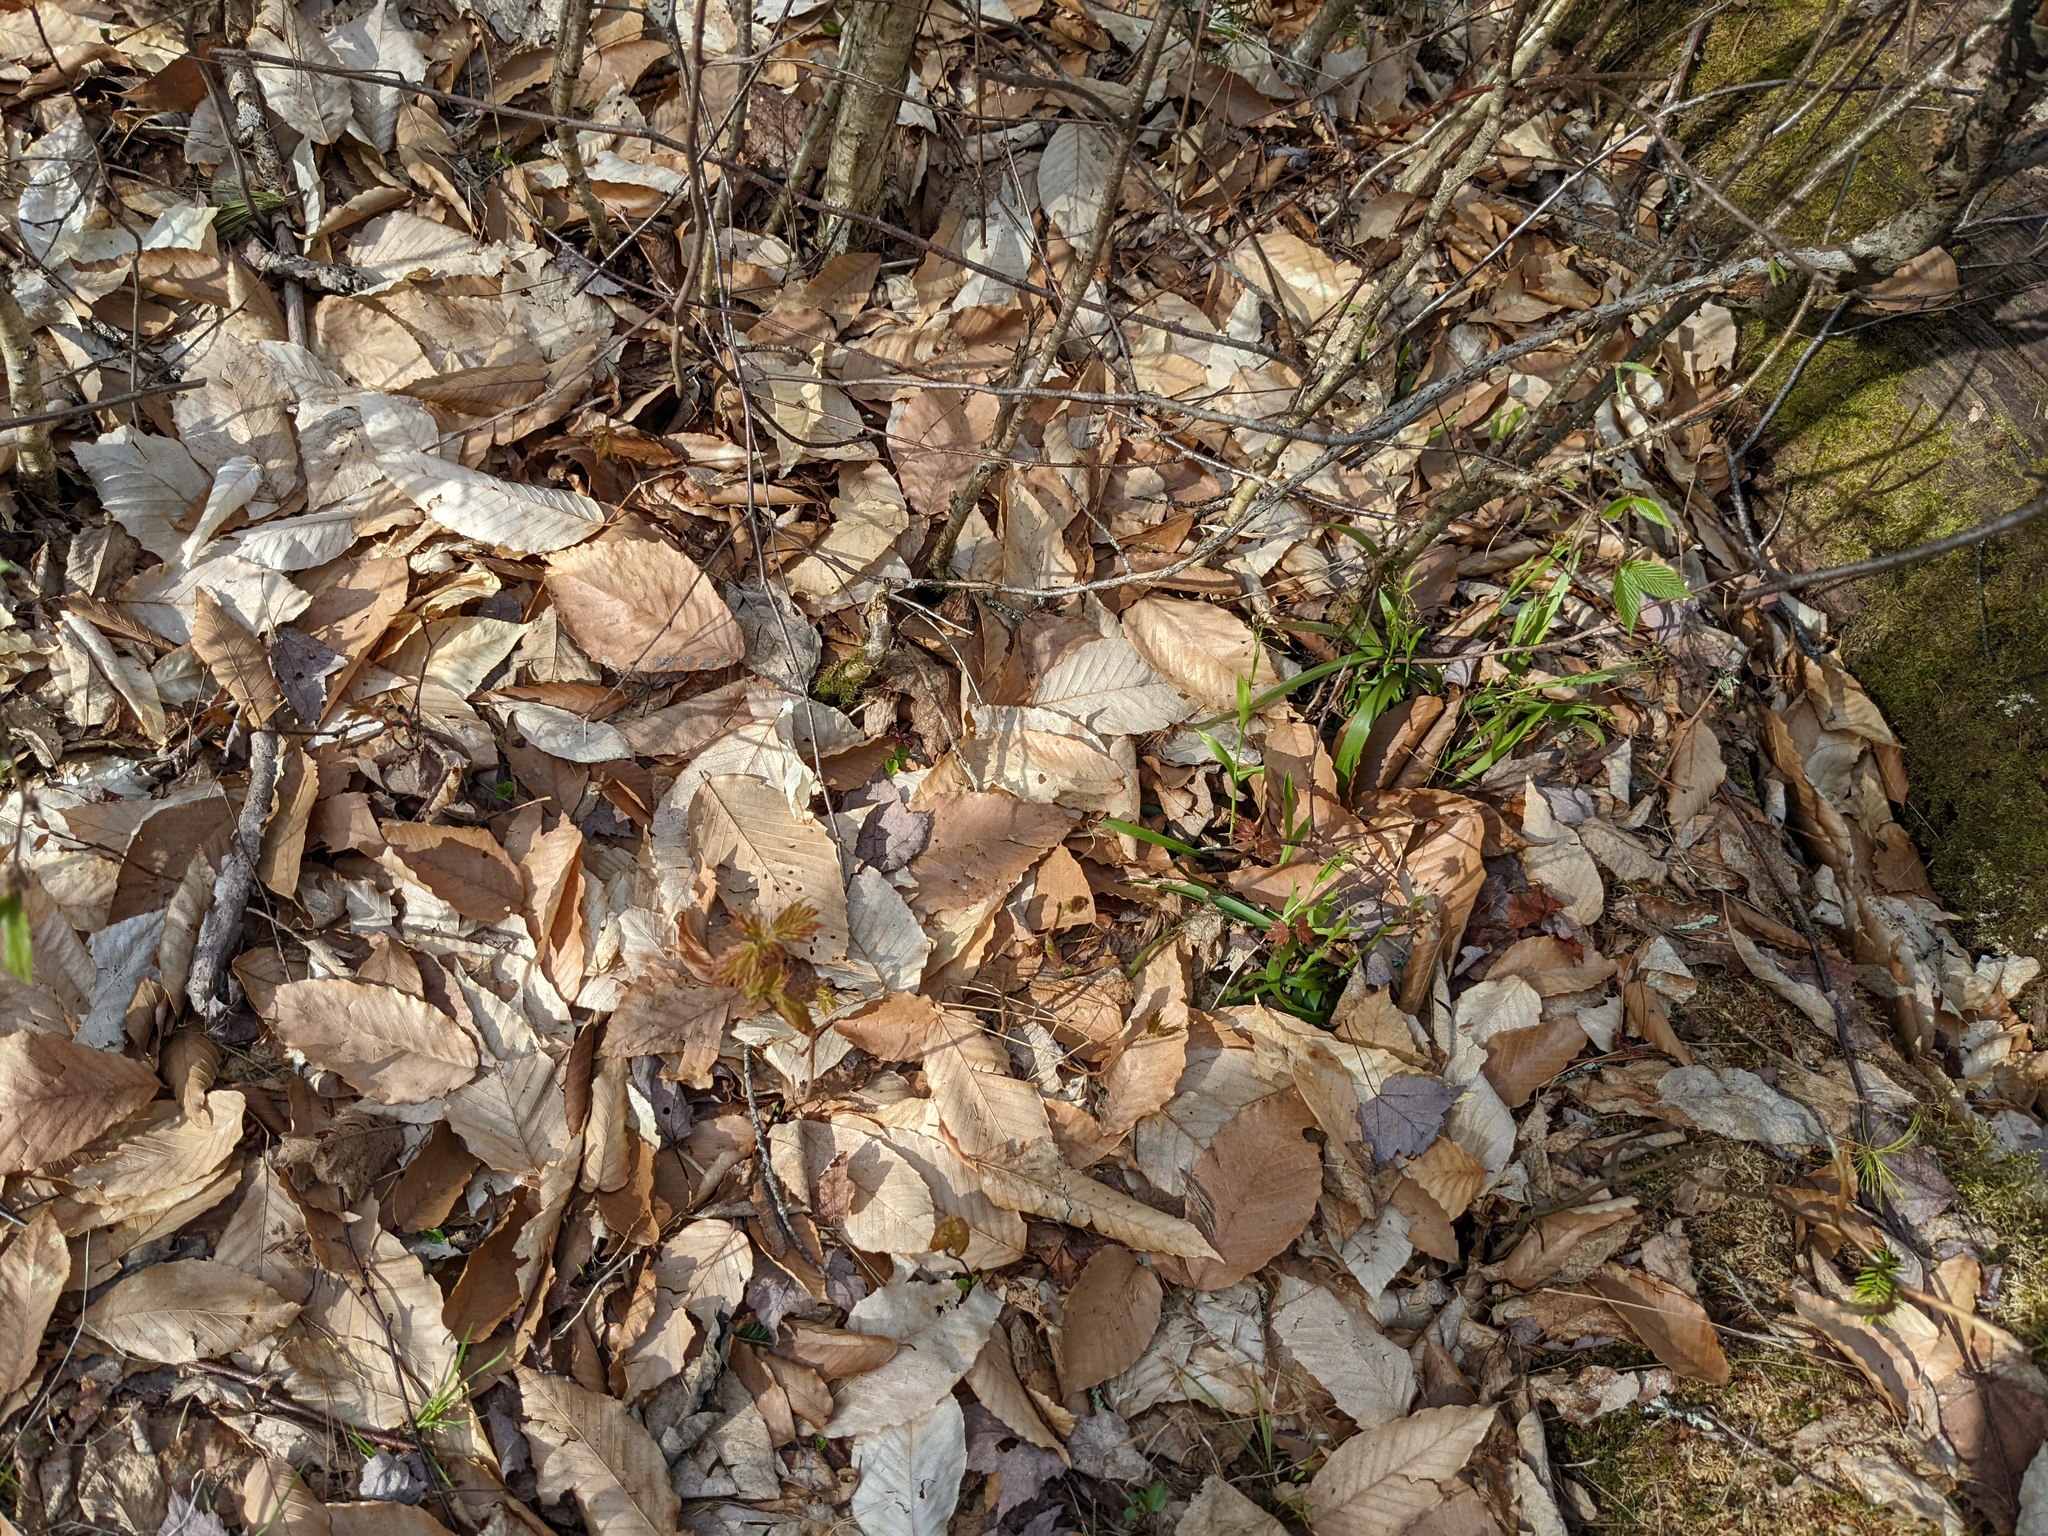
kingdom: Plantae
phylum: Tracheophyta
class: Magnoliopsida
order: Fagales
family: Fagaceae
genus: Fagus
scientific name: Fagus grandifolia
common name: American beech
